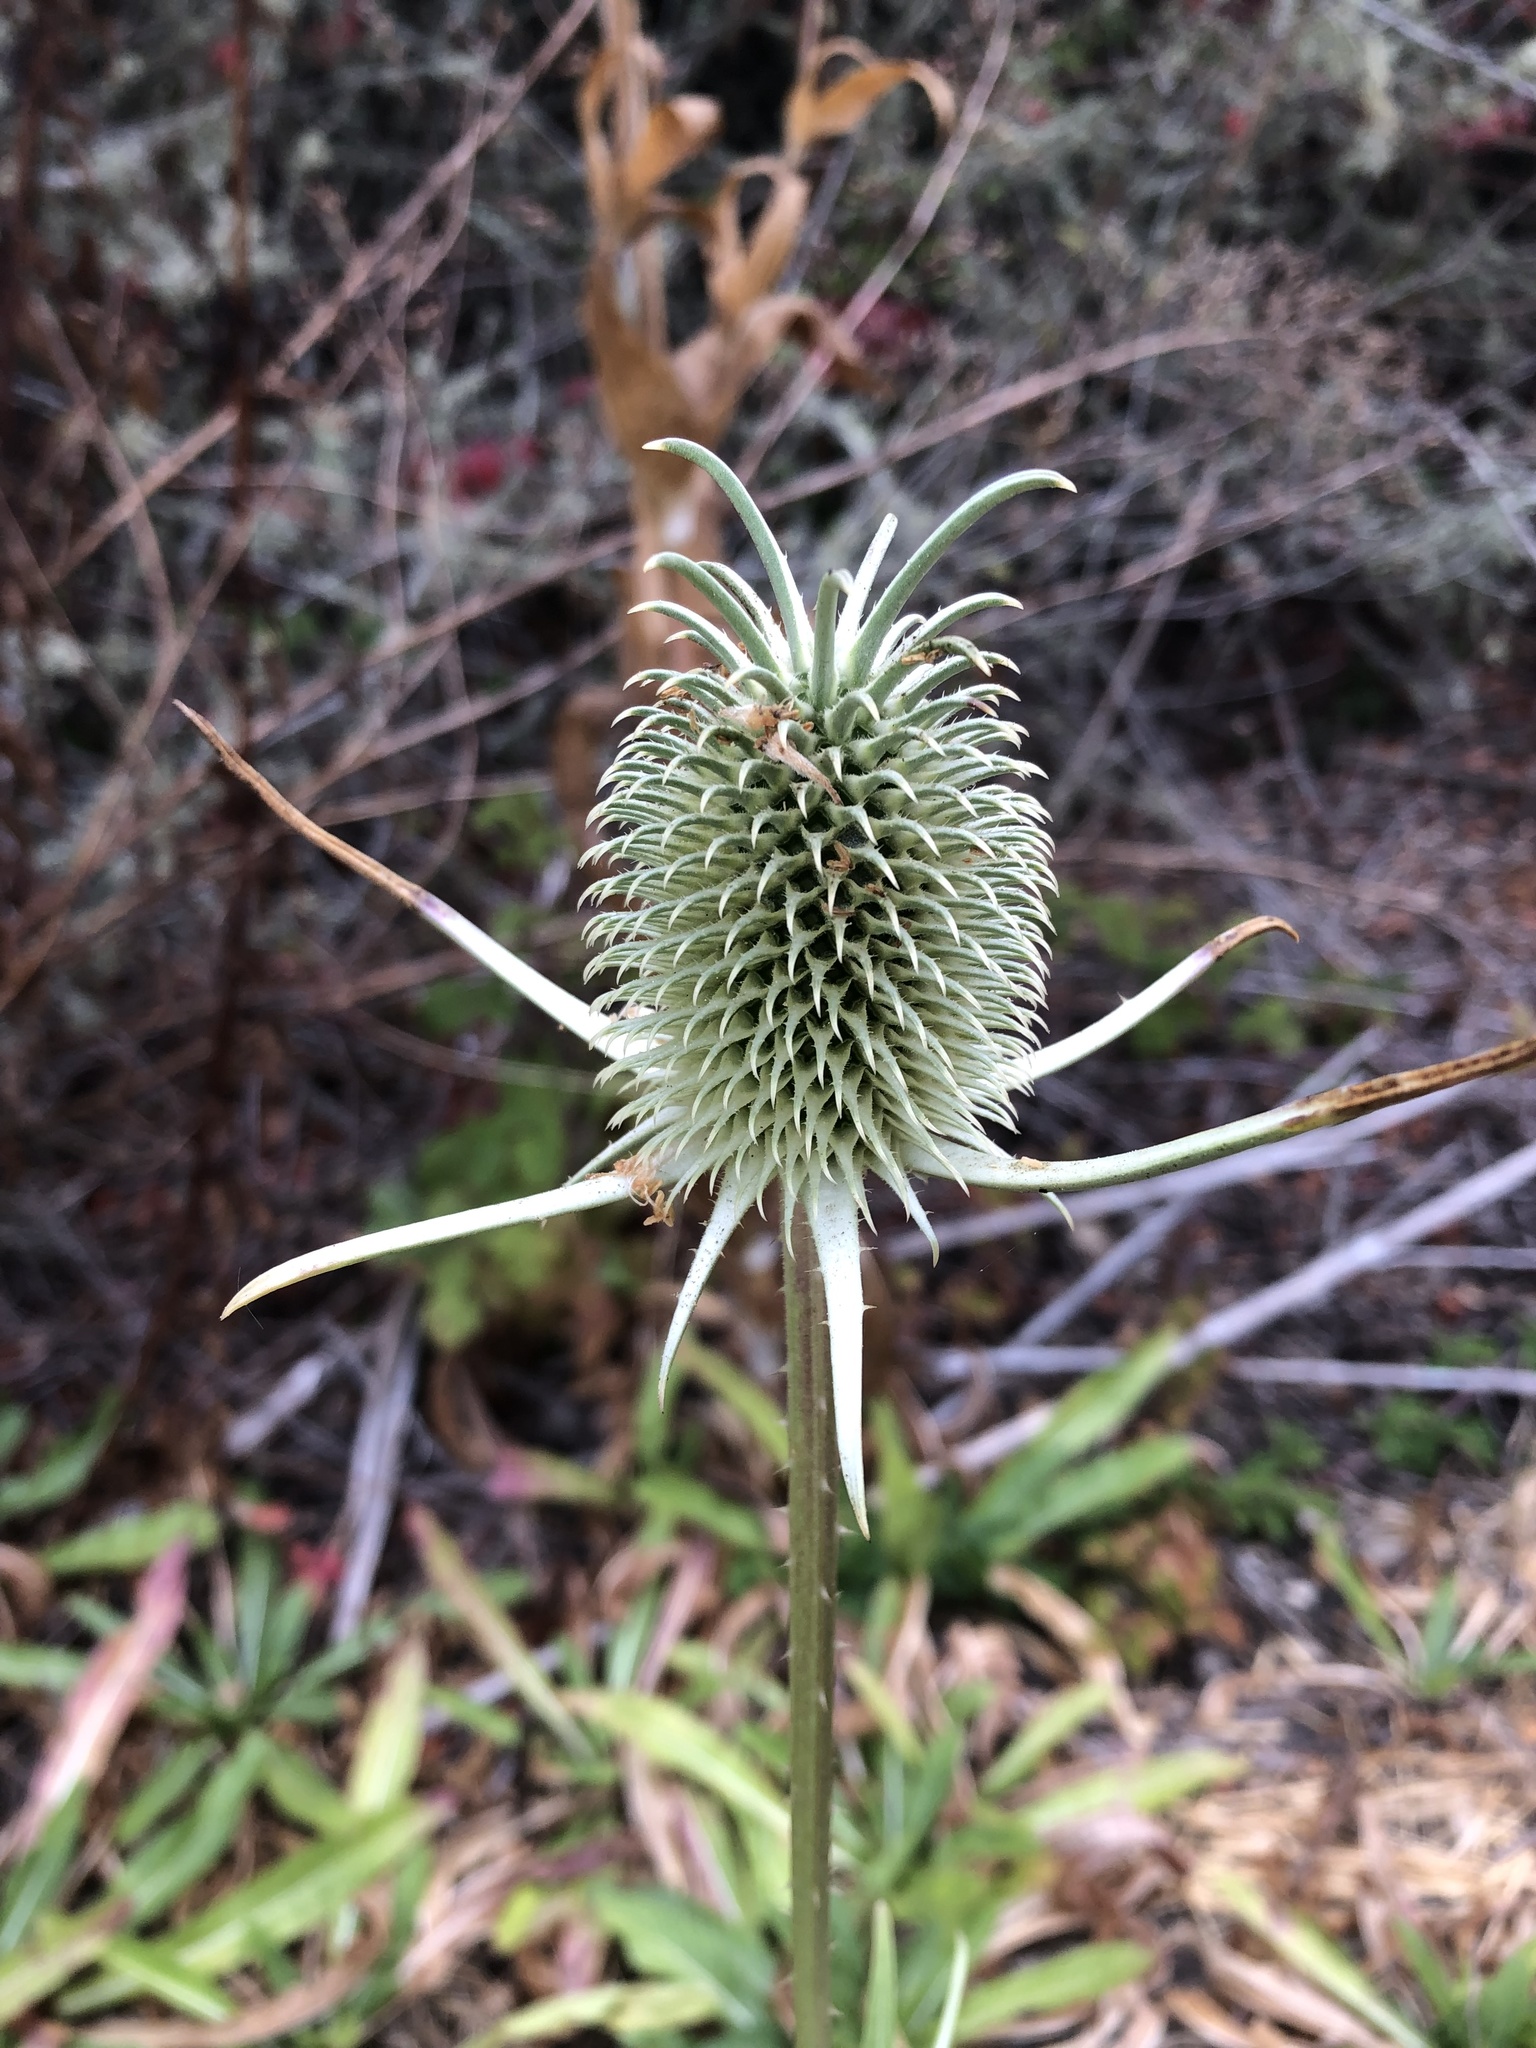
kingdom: Plantae
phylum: Tracheophyta
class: Magnoliopsida
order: Dipsacales
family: Caprifoliaceae
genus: Dipsacus
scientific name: Dipsacus sativus
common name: Fuller's teasel
